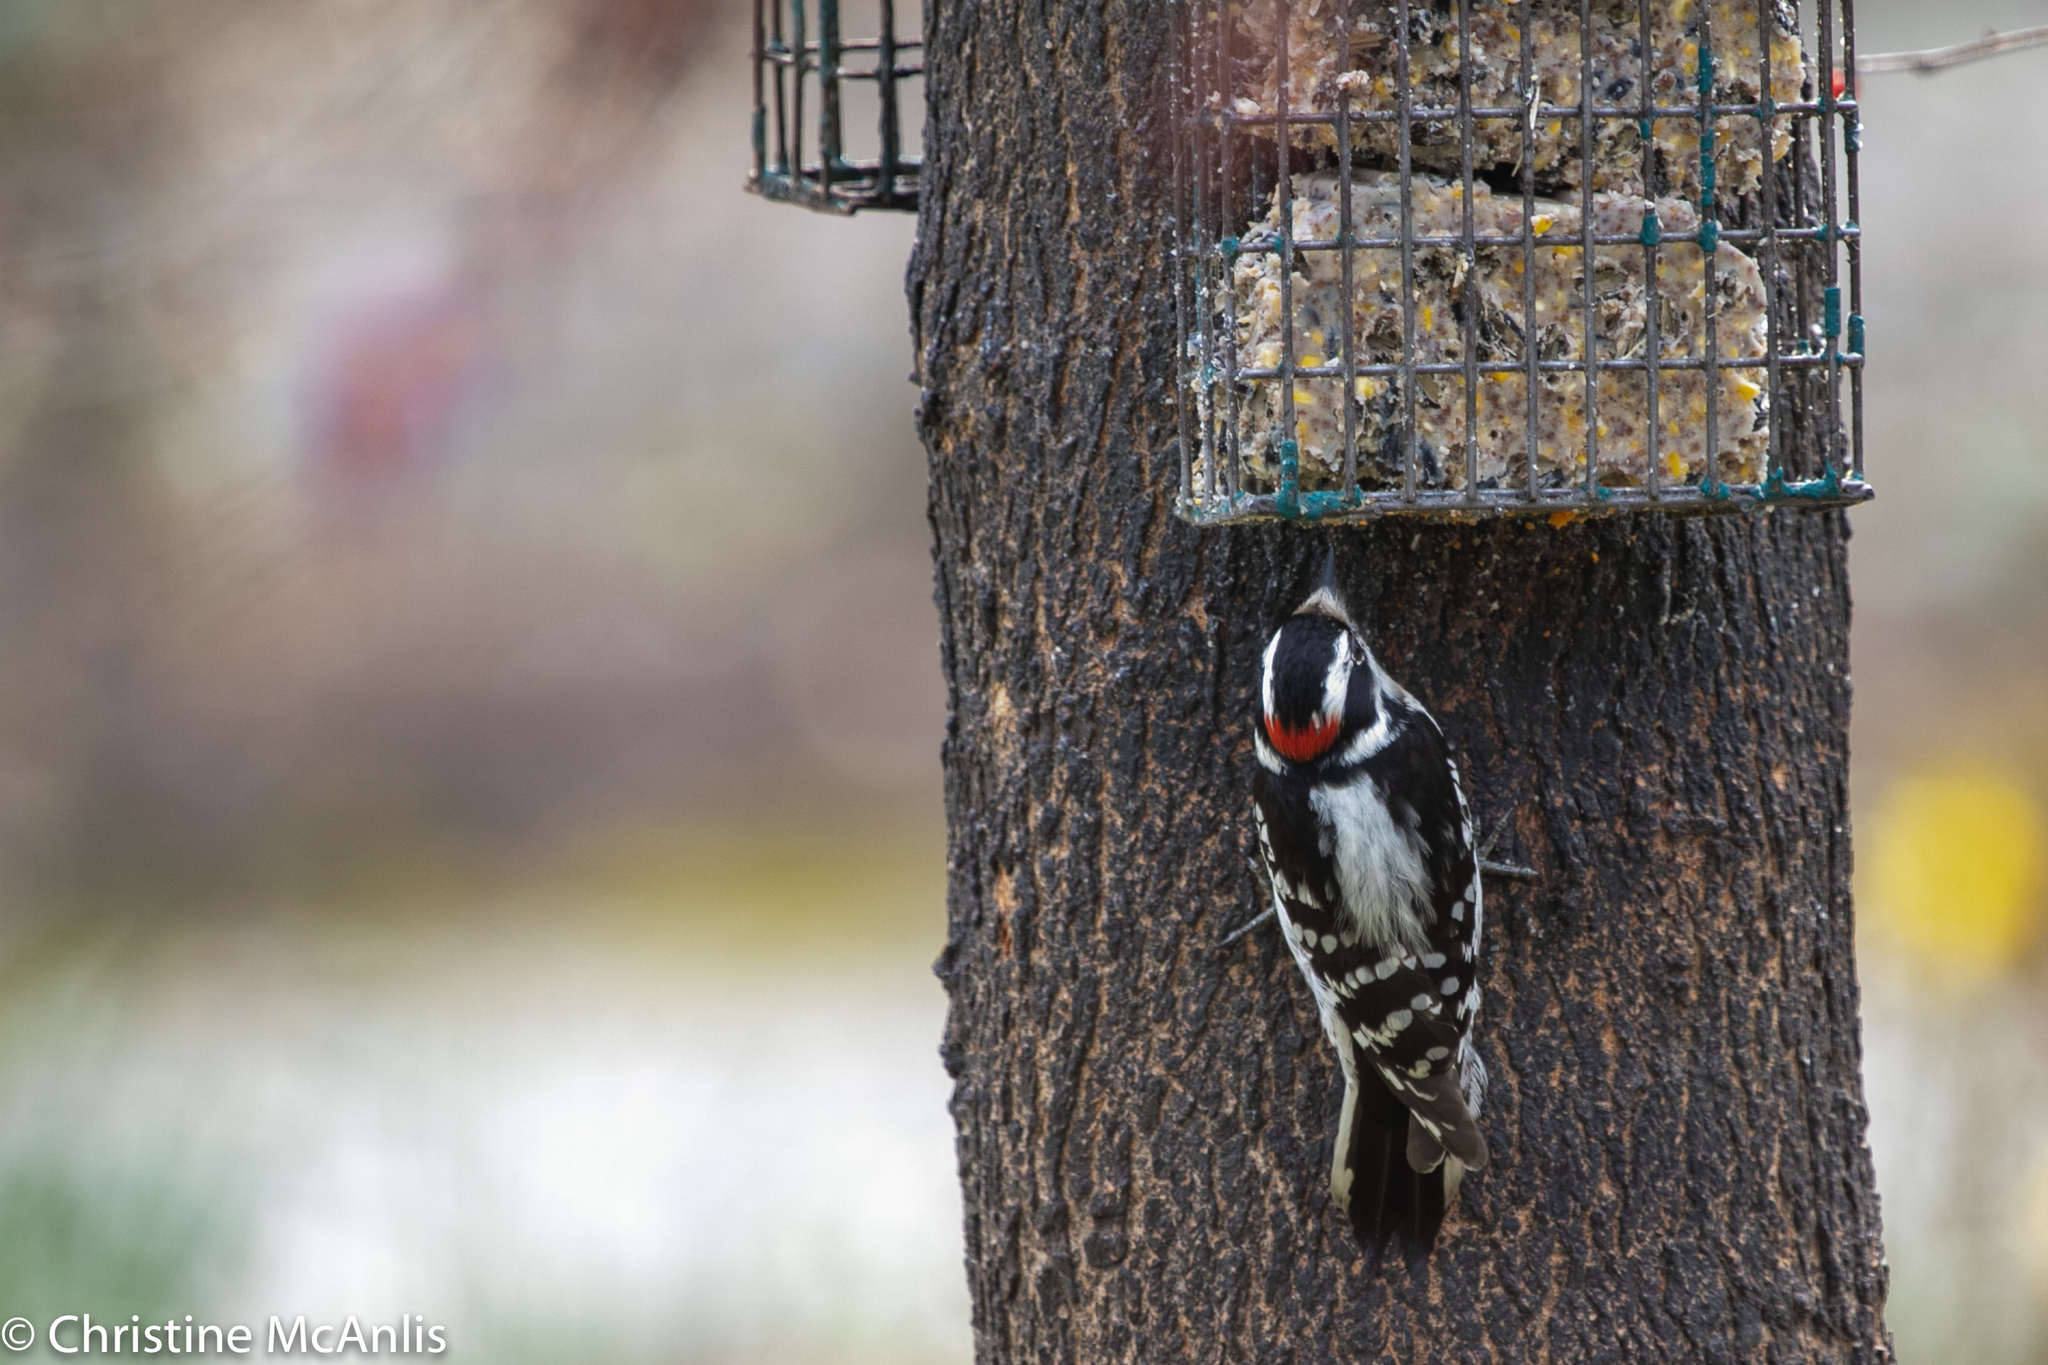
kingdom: Animalia
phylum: Chordata
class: Aves
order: Piciformes
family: Picidae
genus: Dryobates
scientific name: Dryobates pubescens
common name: Downy woodpecker
